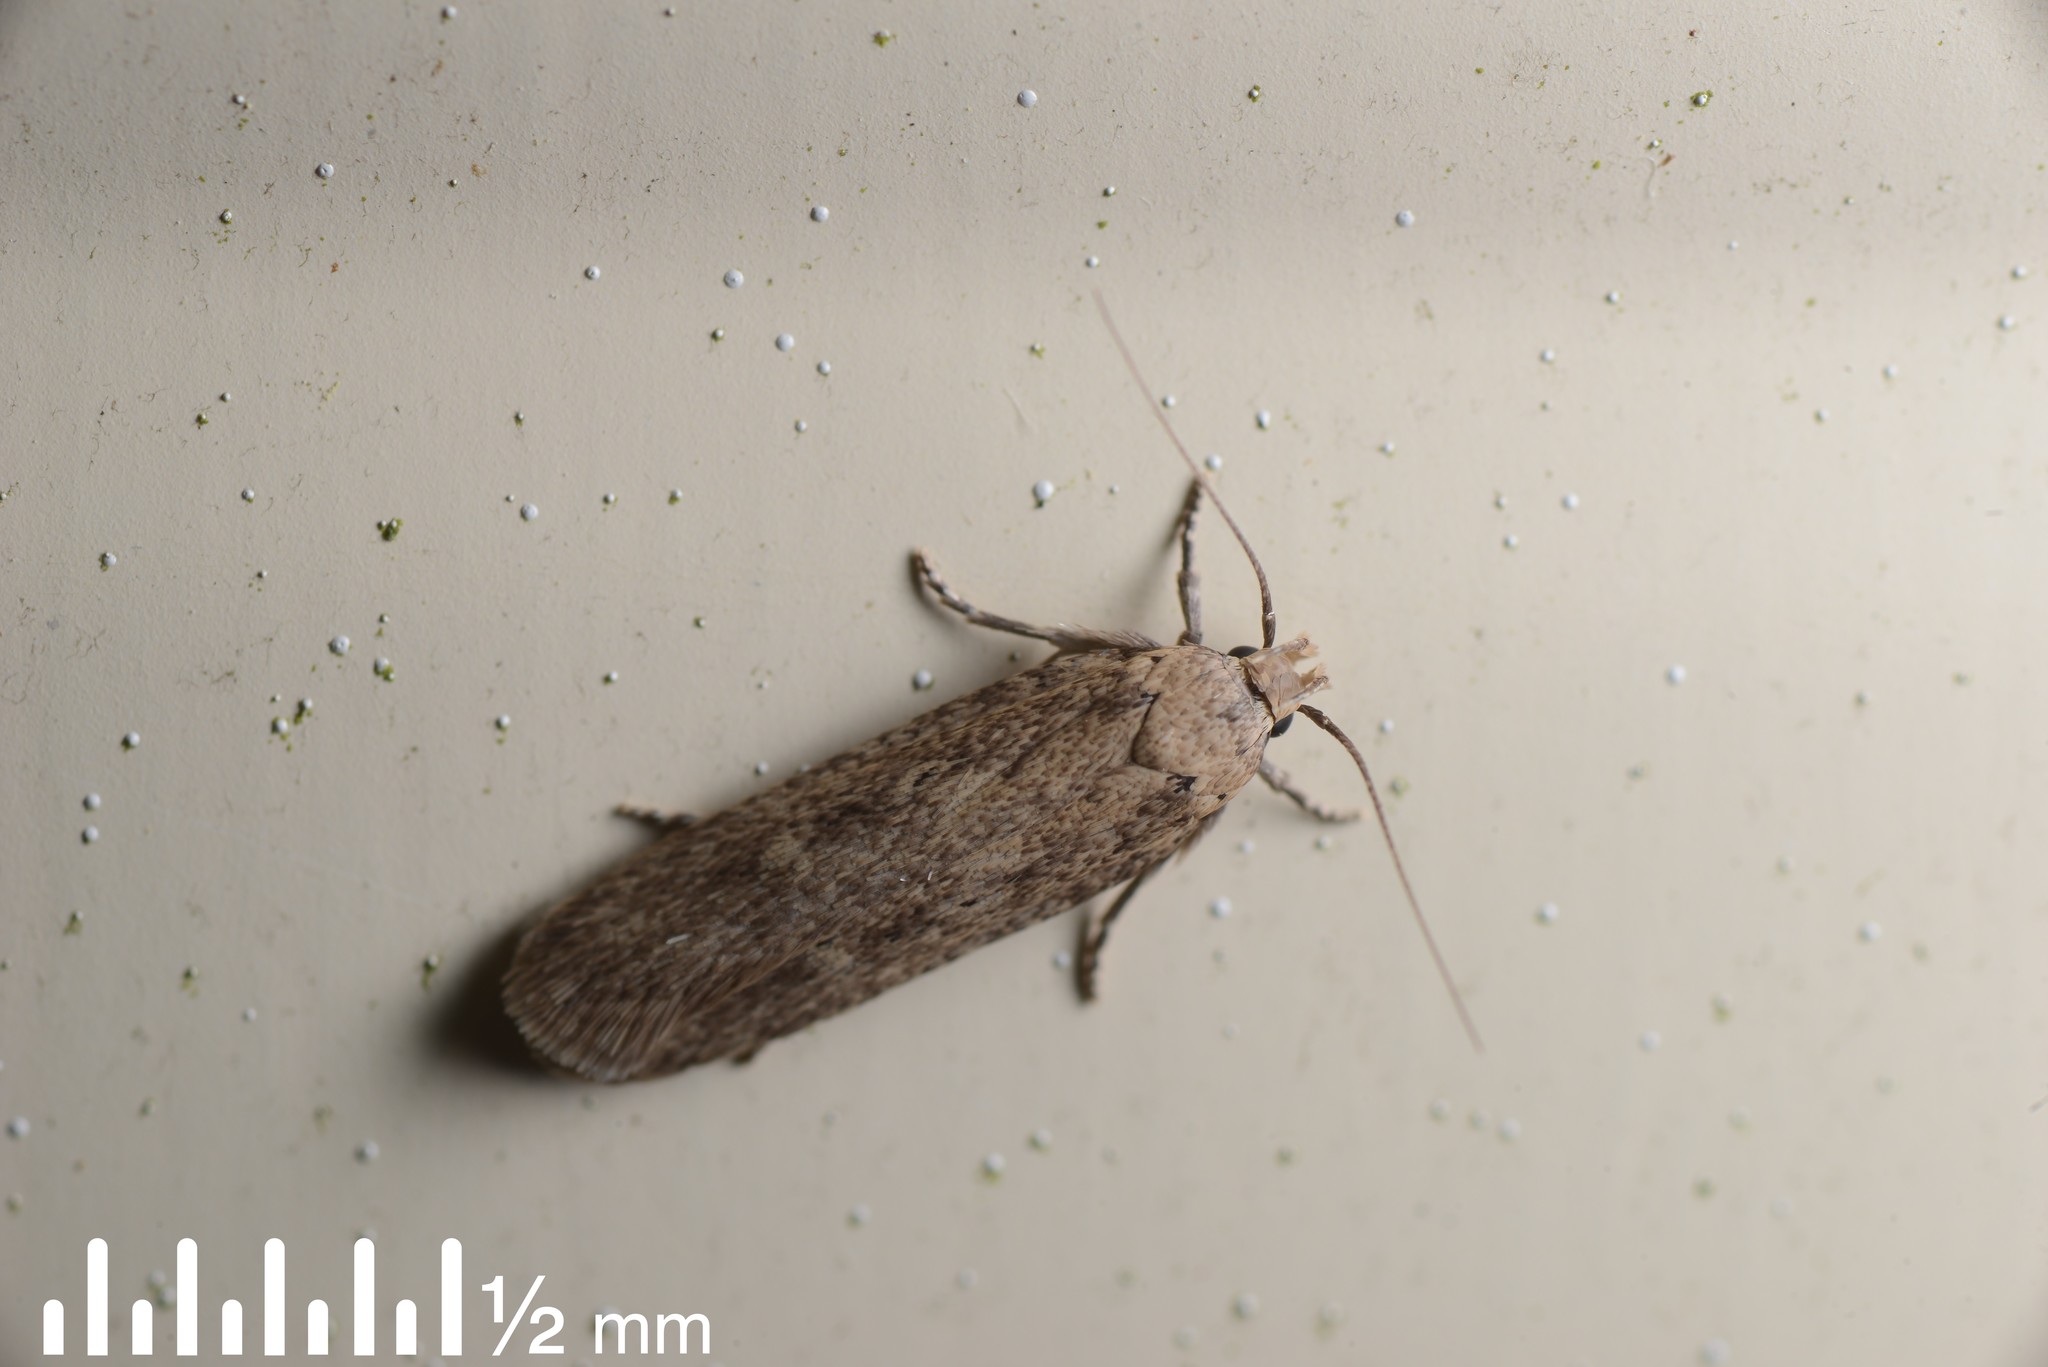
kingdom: Animalia
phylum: Arthropoda
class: Insecta
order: Lepidoptera
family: Gelechiidae
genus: Platyedra
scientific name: Platyedra subcinerea
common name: Moth
